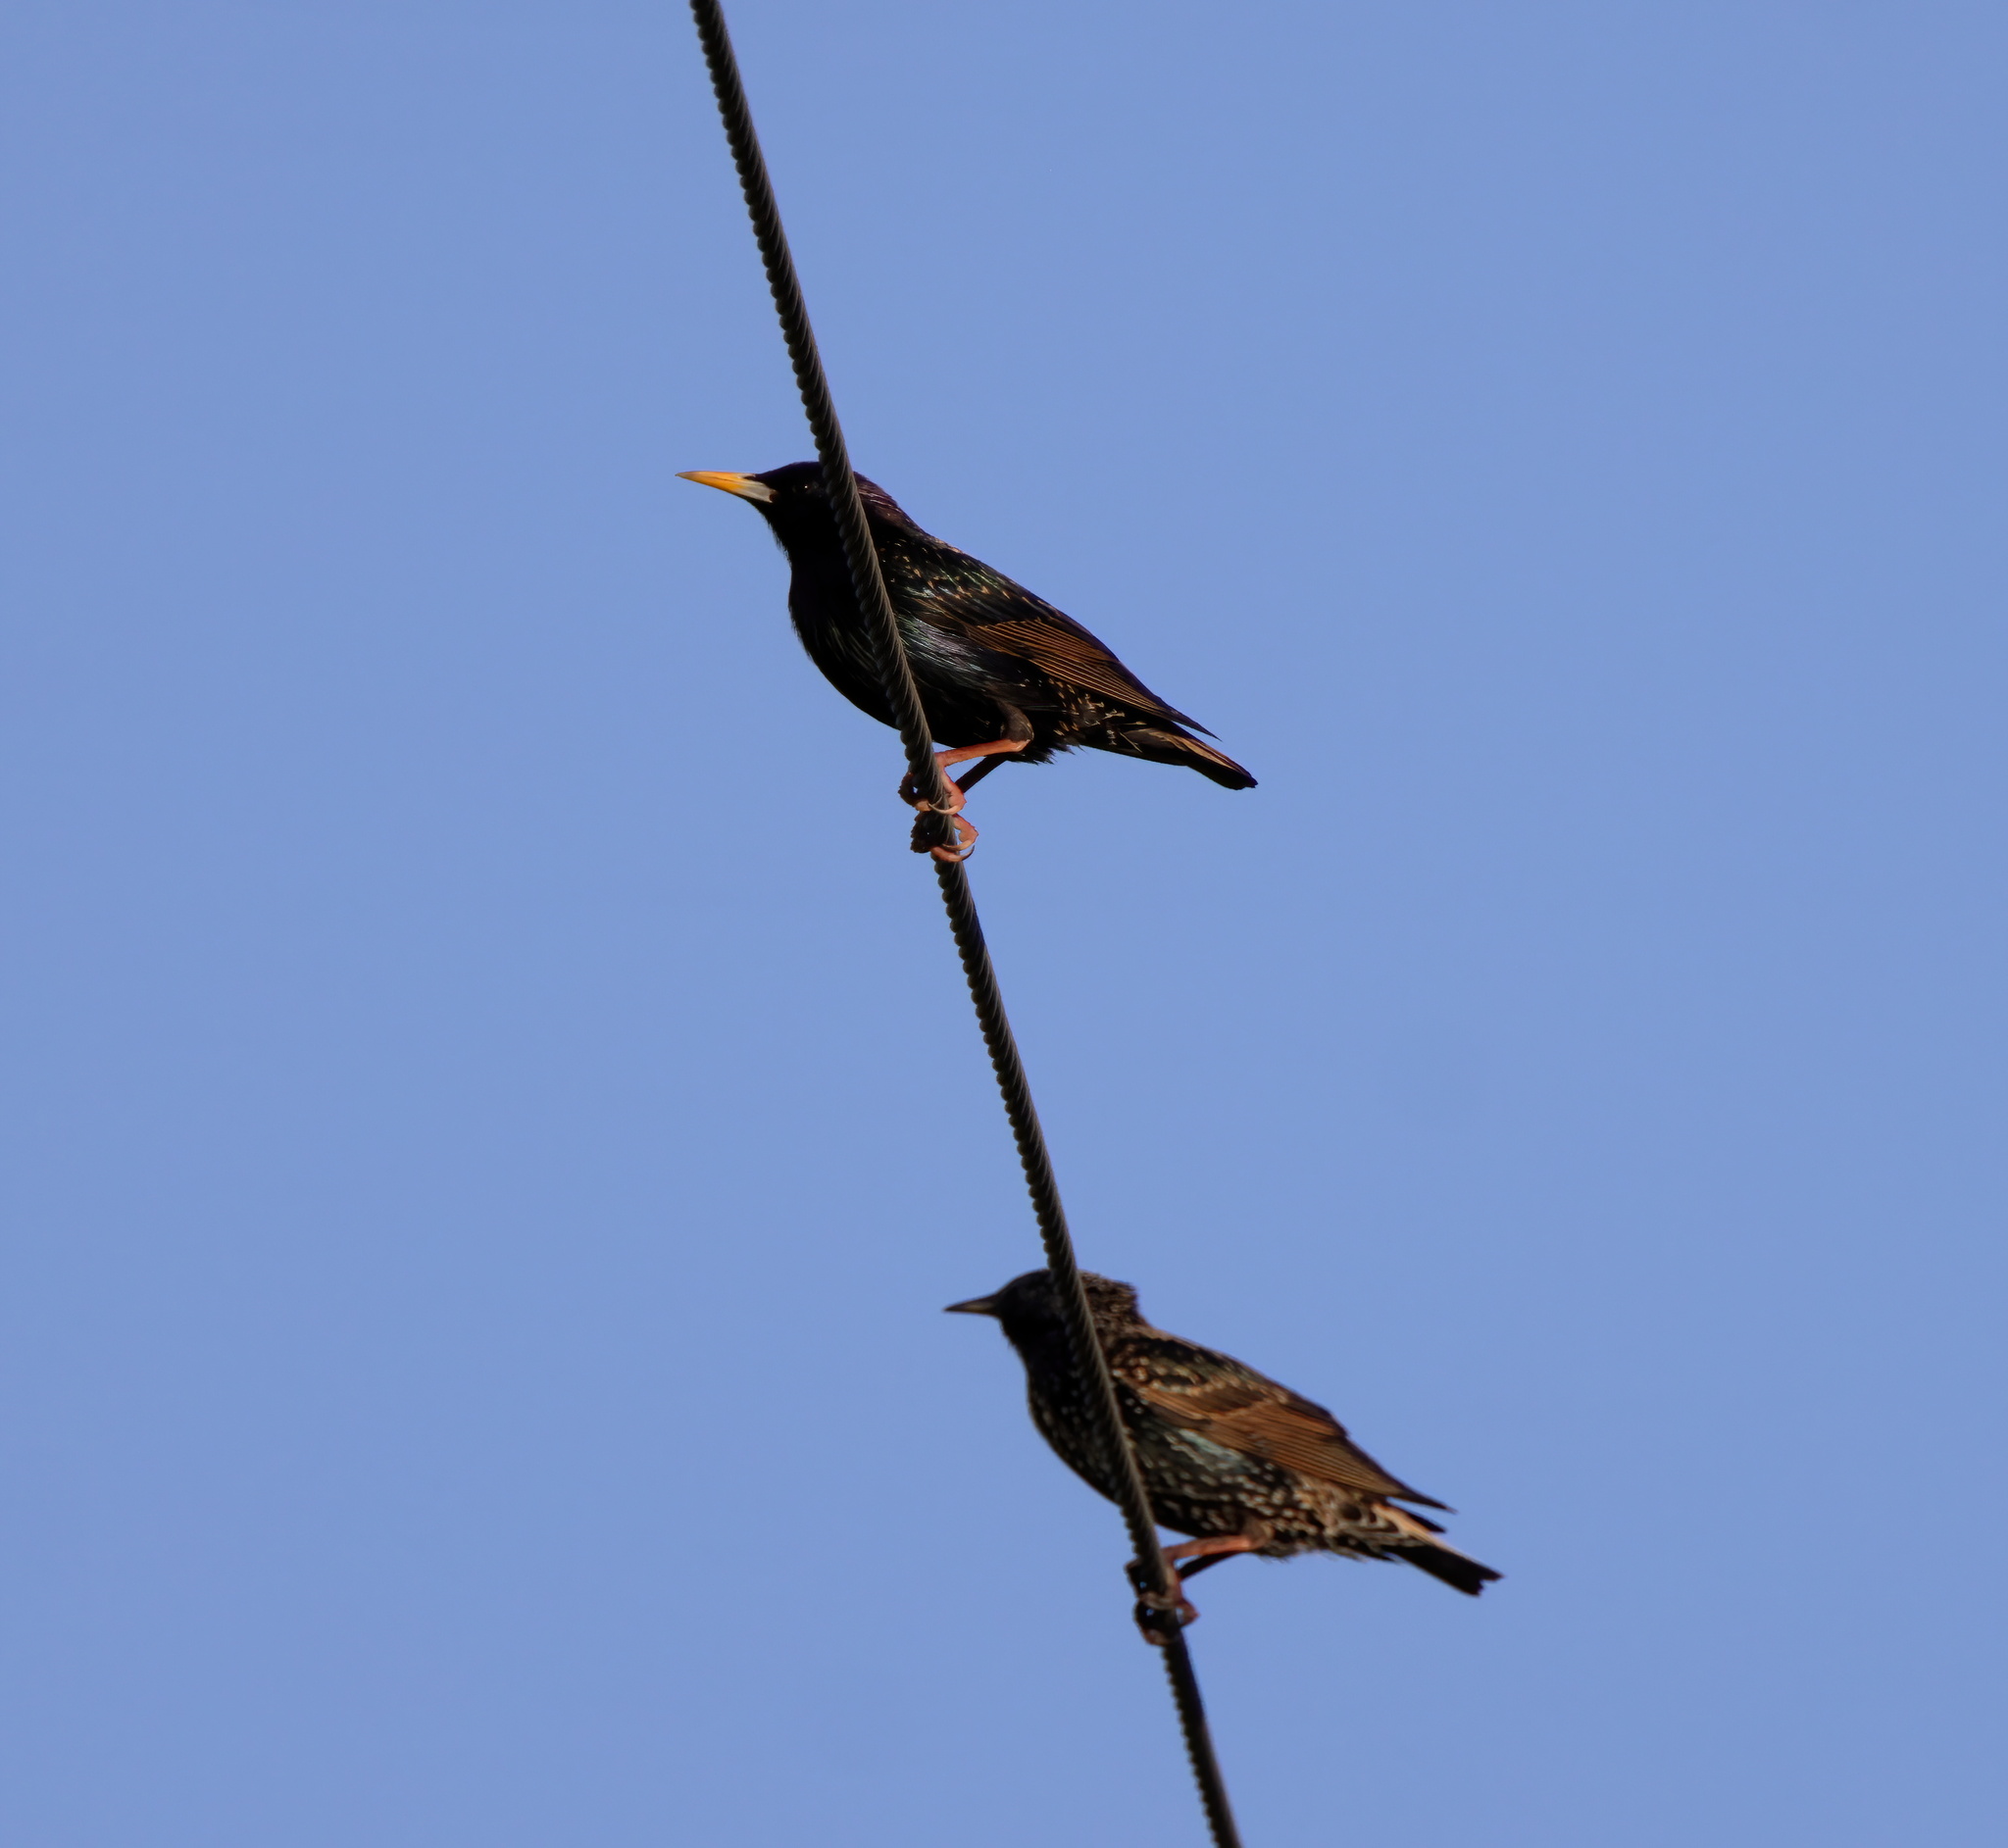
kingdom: Animalia
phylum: Chordata
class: Aves
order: Passeriformes
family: Sturnidae
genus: Sturnus
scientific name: Sturnus vulgaris
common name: Common starling
